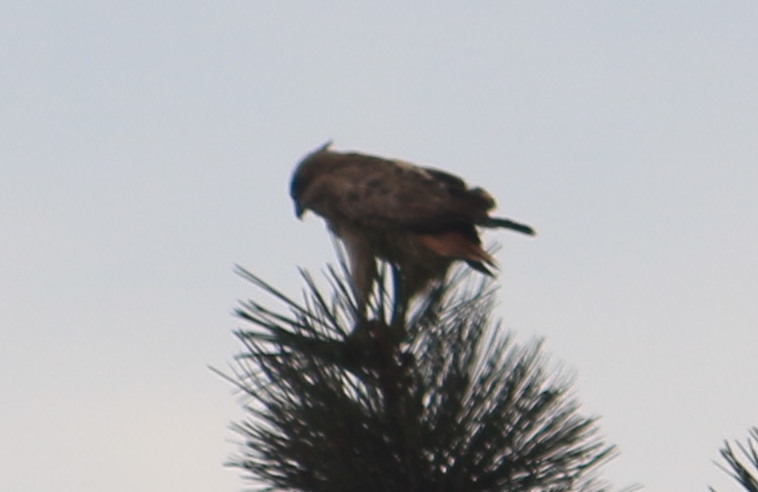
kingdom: Animalia
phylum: Chordata
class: Aves
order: Accipitriformes
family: Accipitridae
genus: Buteo
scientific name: Buteo jamaicensis
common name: Red-tailed hawk
